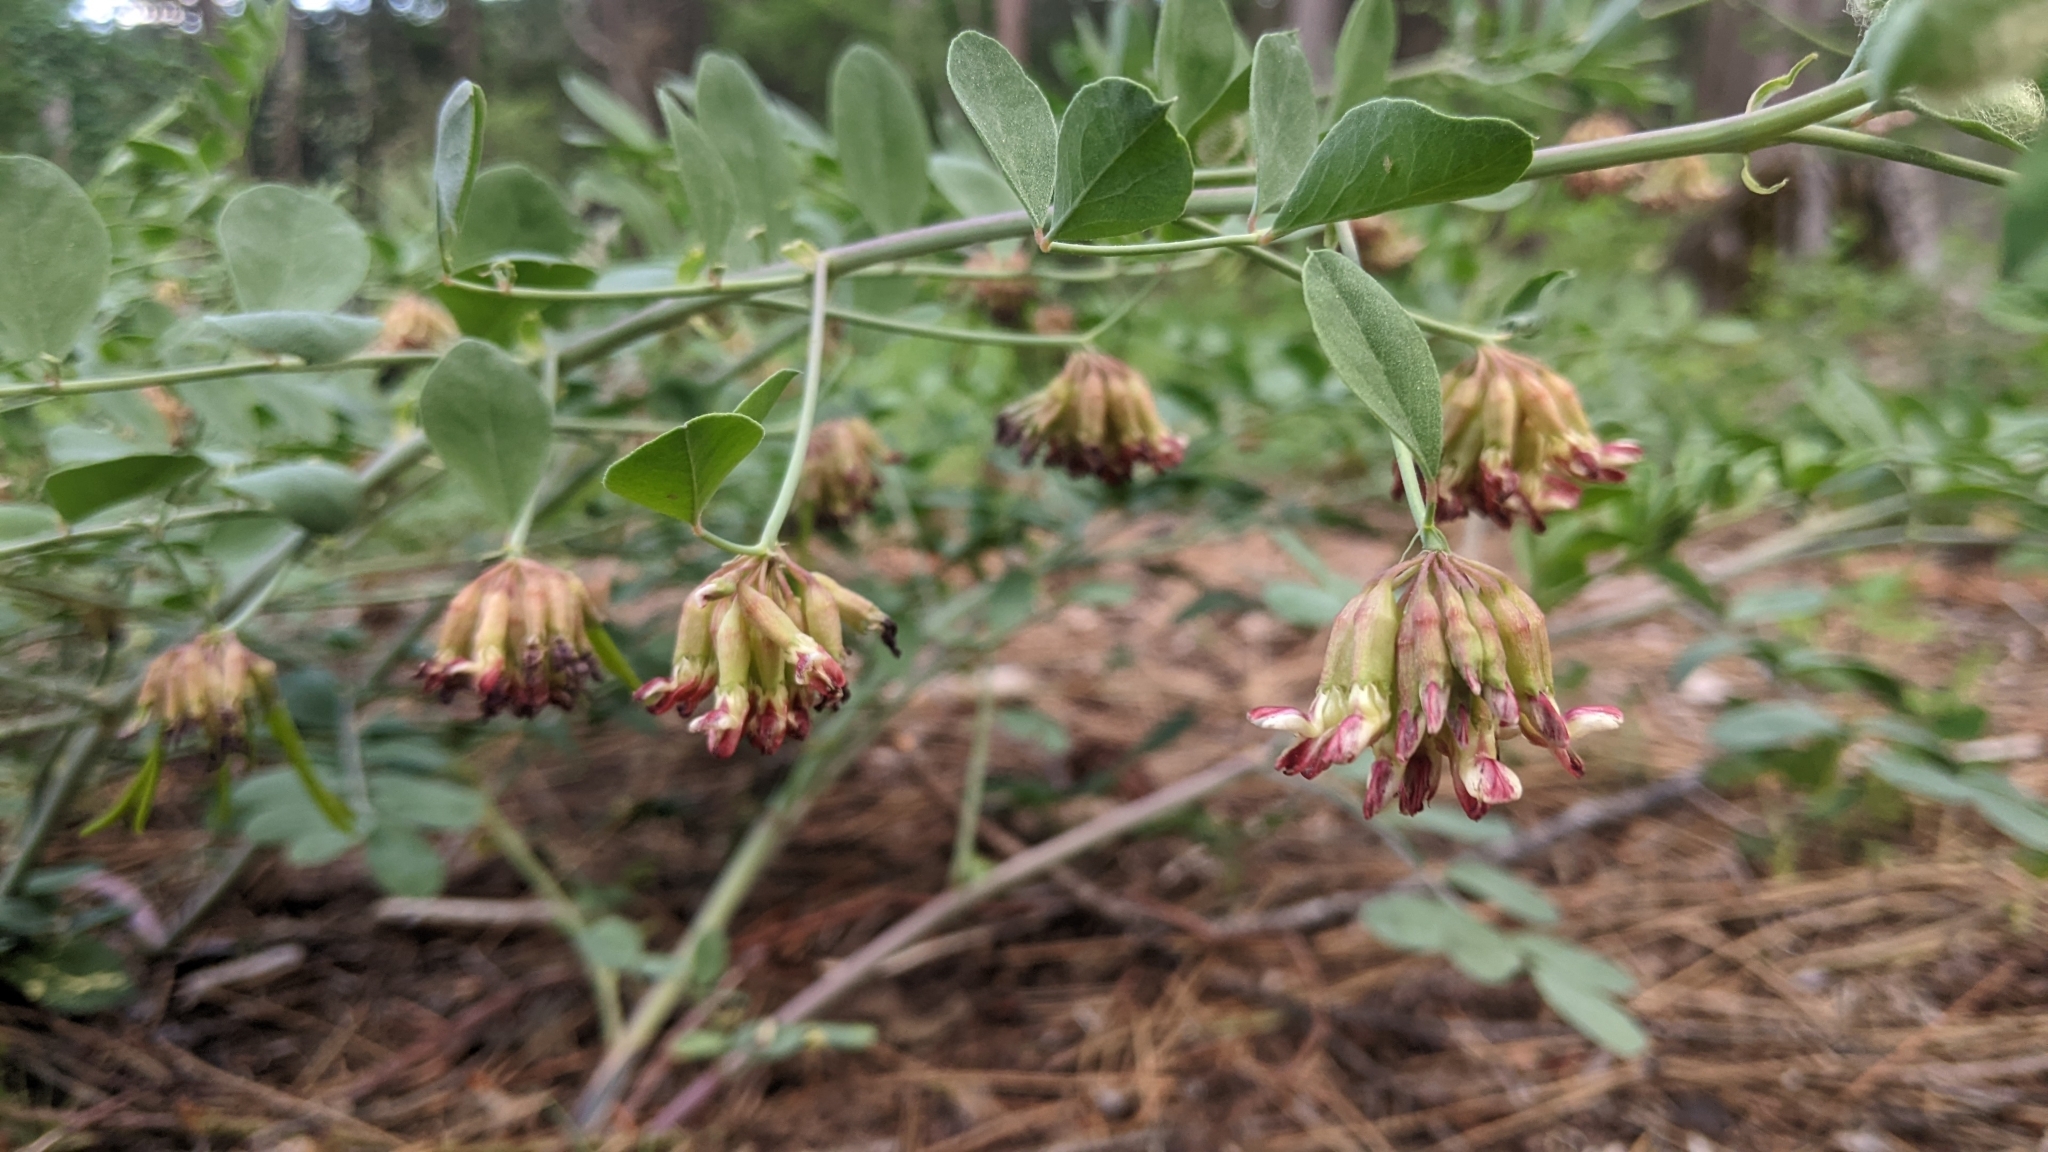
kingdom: Plantae
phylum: Tracheophyta
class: Magnoliopsida
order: Fabales
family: Fabaceae
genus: Hosackia
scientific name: Hosackia crassifolia
